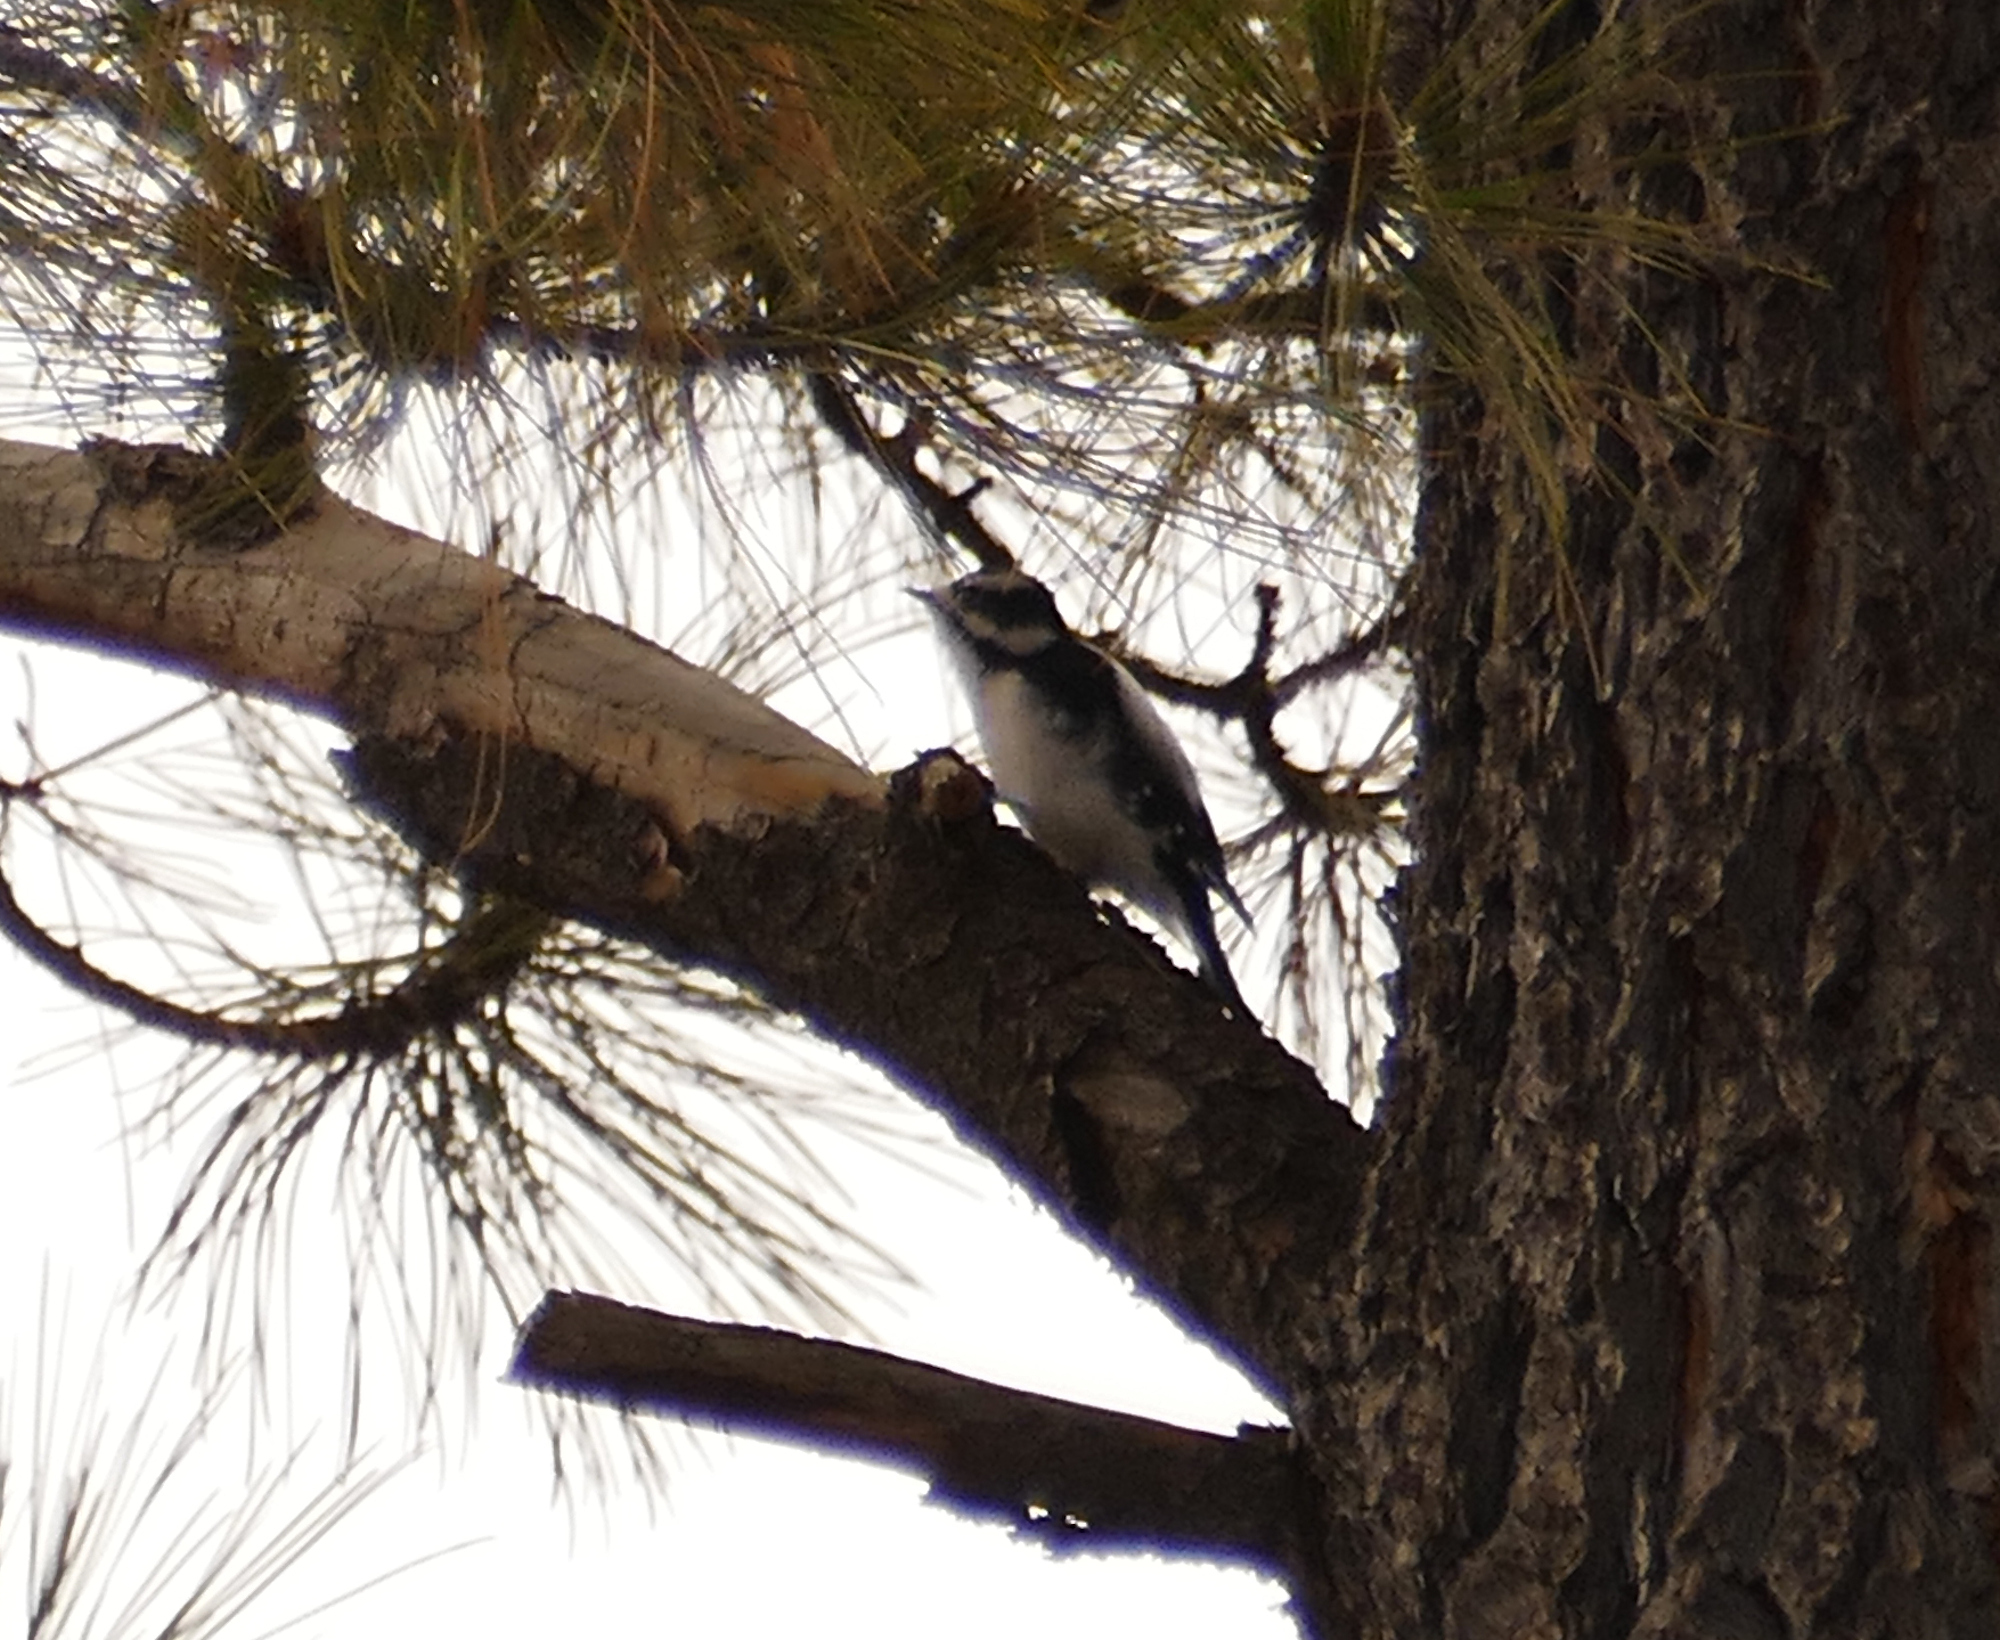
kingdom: Animalia
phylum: Chordata
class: Aves
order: Piciformes
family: Picidae
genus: Dryobates
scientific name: Dryobates pubescens
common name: Downy woodpecker
